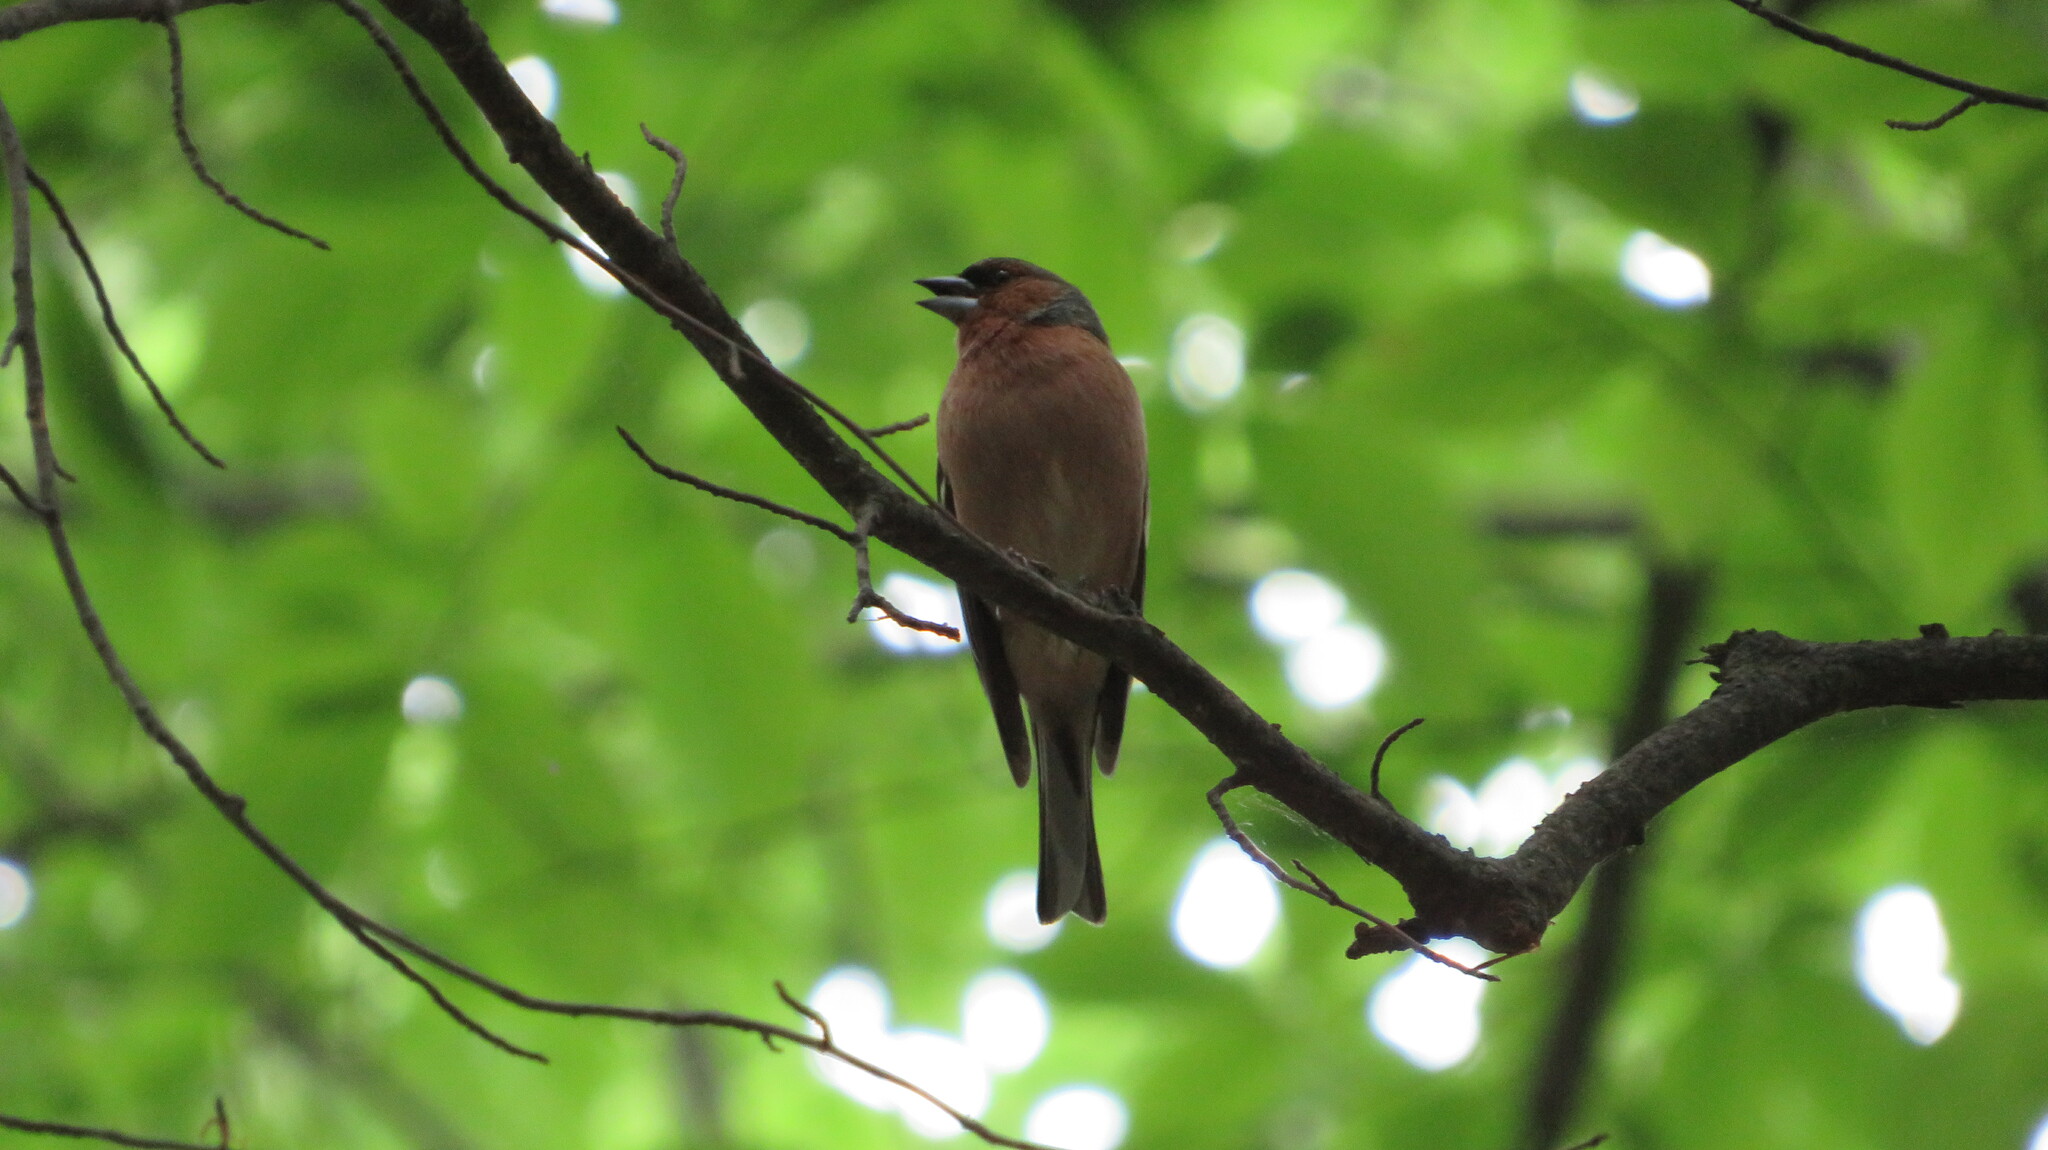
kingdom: Animalia
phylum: Chordata
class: Aves
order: Passeriformes
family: Fringillidae
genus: Fringilla
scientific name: Fringilla coelebs
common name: Common chaffinch
